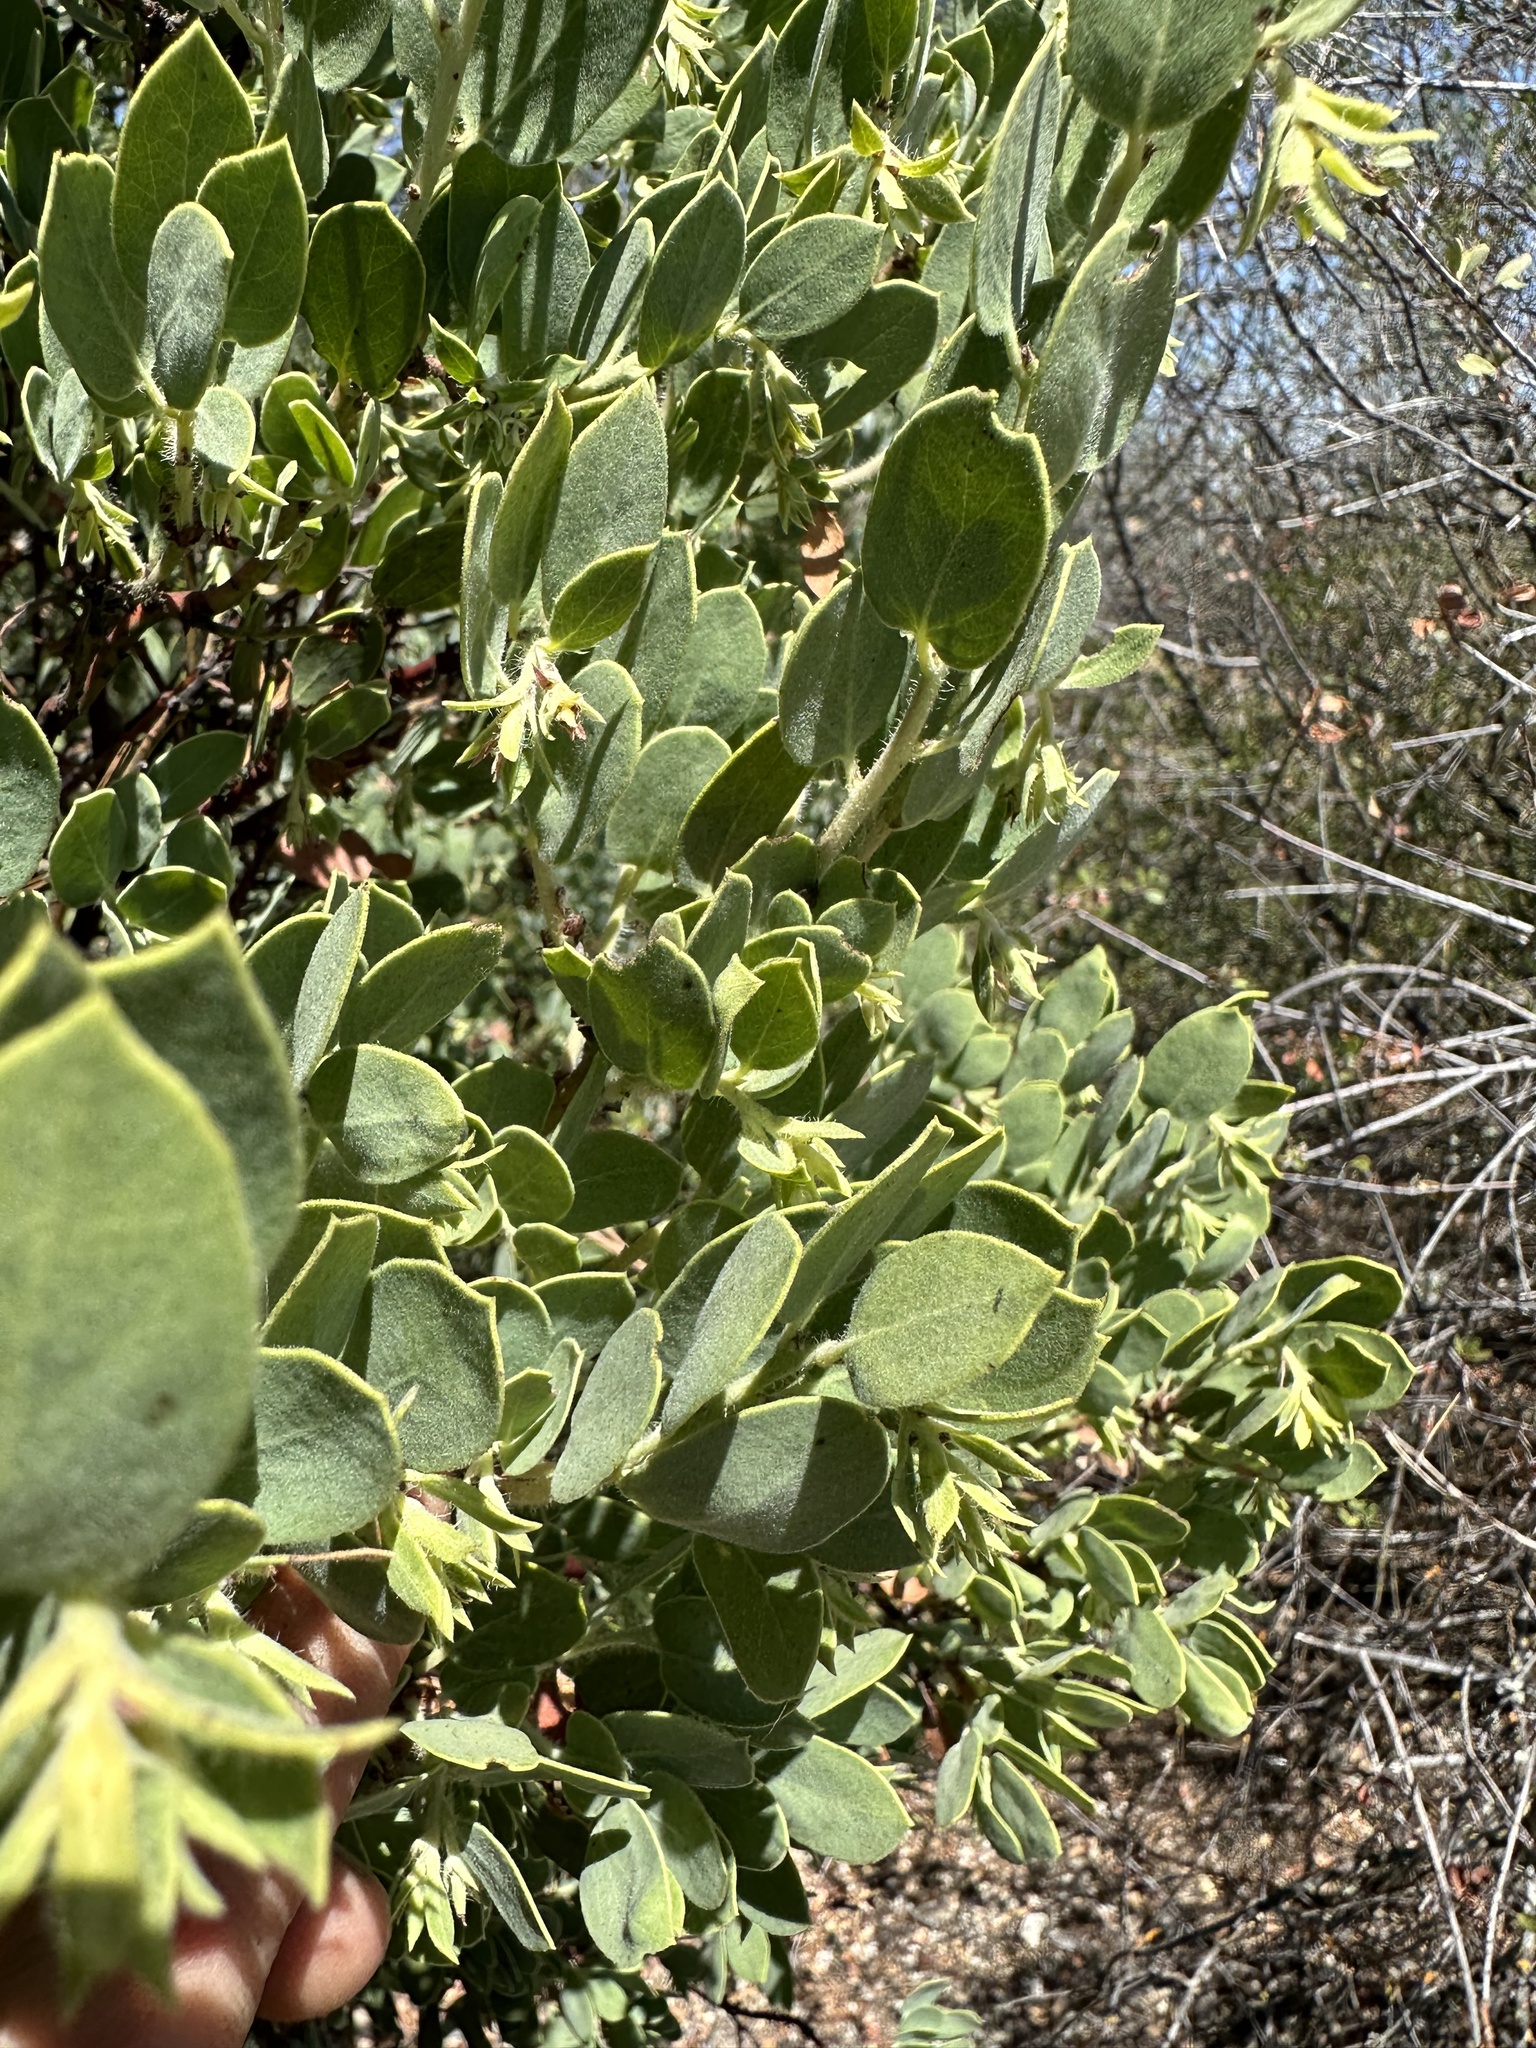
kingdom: Plantae
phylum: Tracheophyta
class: Magnoliopsida
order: Ericales
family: Ericaceae
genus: Arctostaphylos
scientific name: Arctostaphylos pilosula
